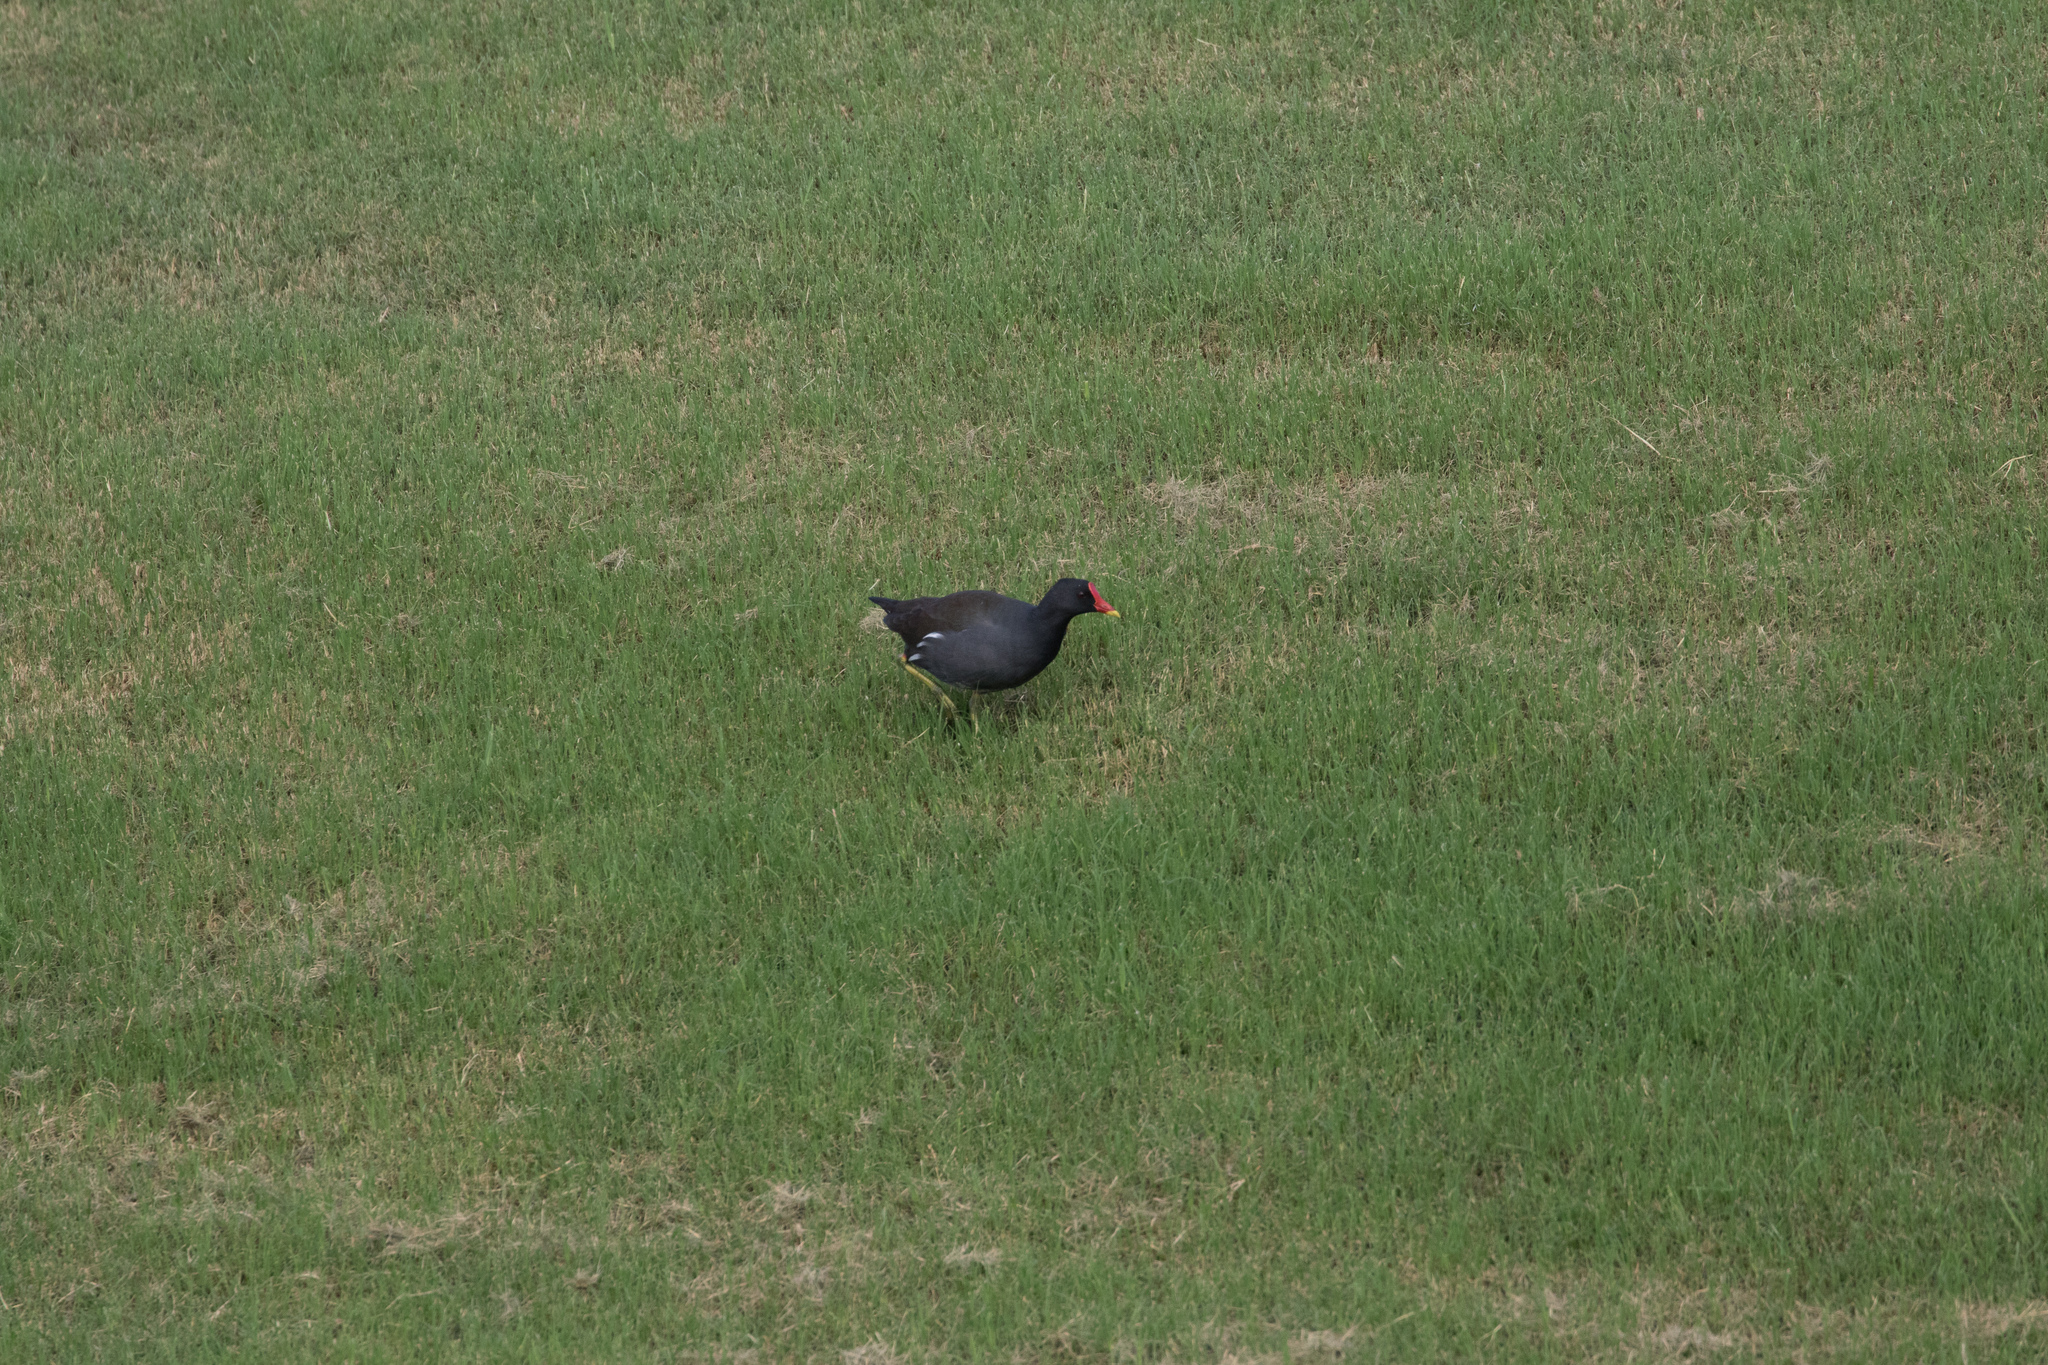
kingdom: Animalia
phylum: Chordata
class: Aves
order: Gruiformes
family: Rallidae
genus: Gallinula
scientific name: Gallinula chloropus
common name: Common moorhen
